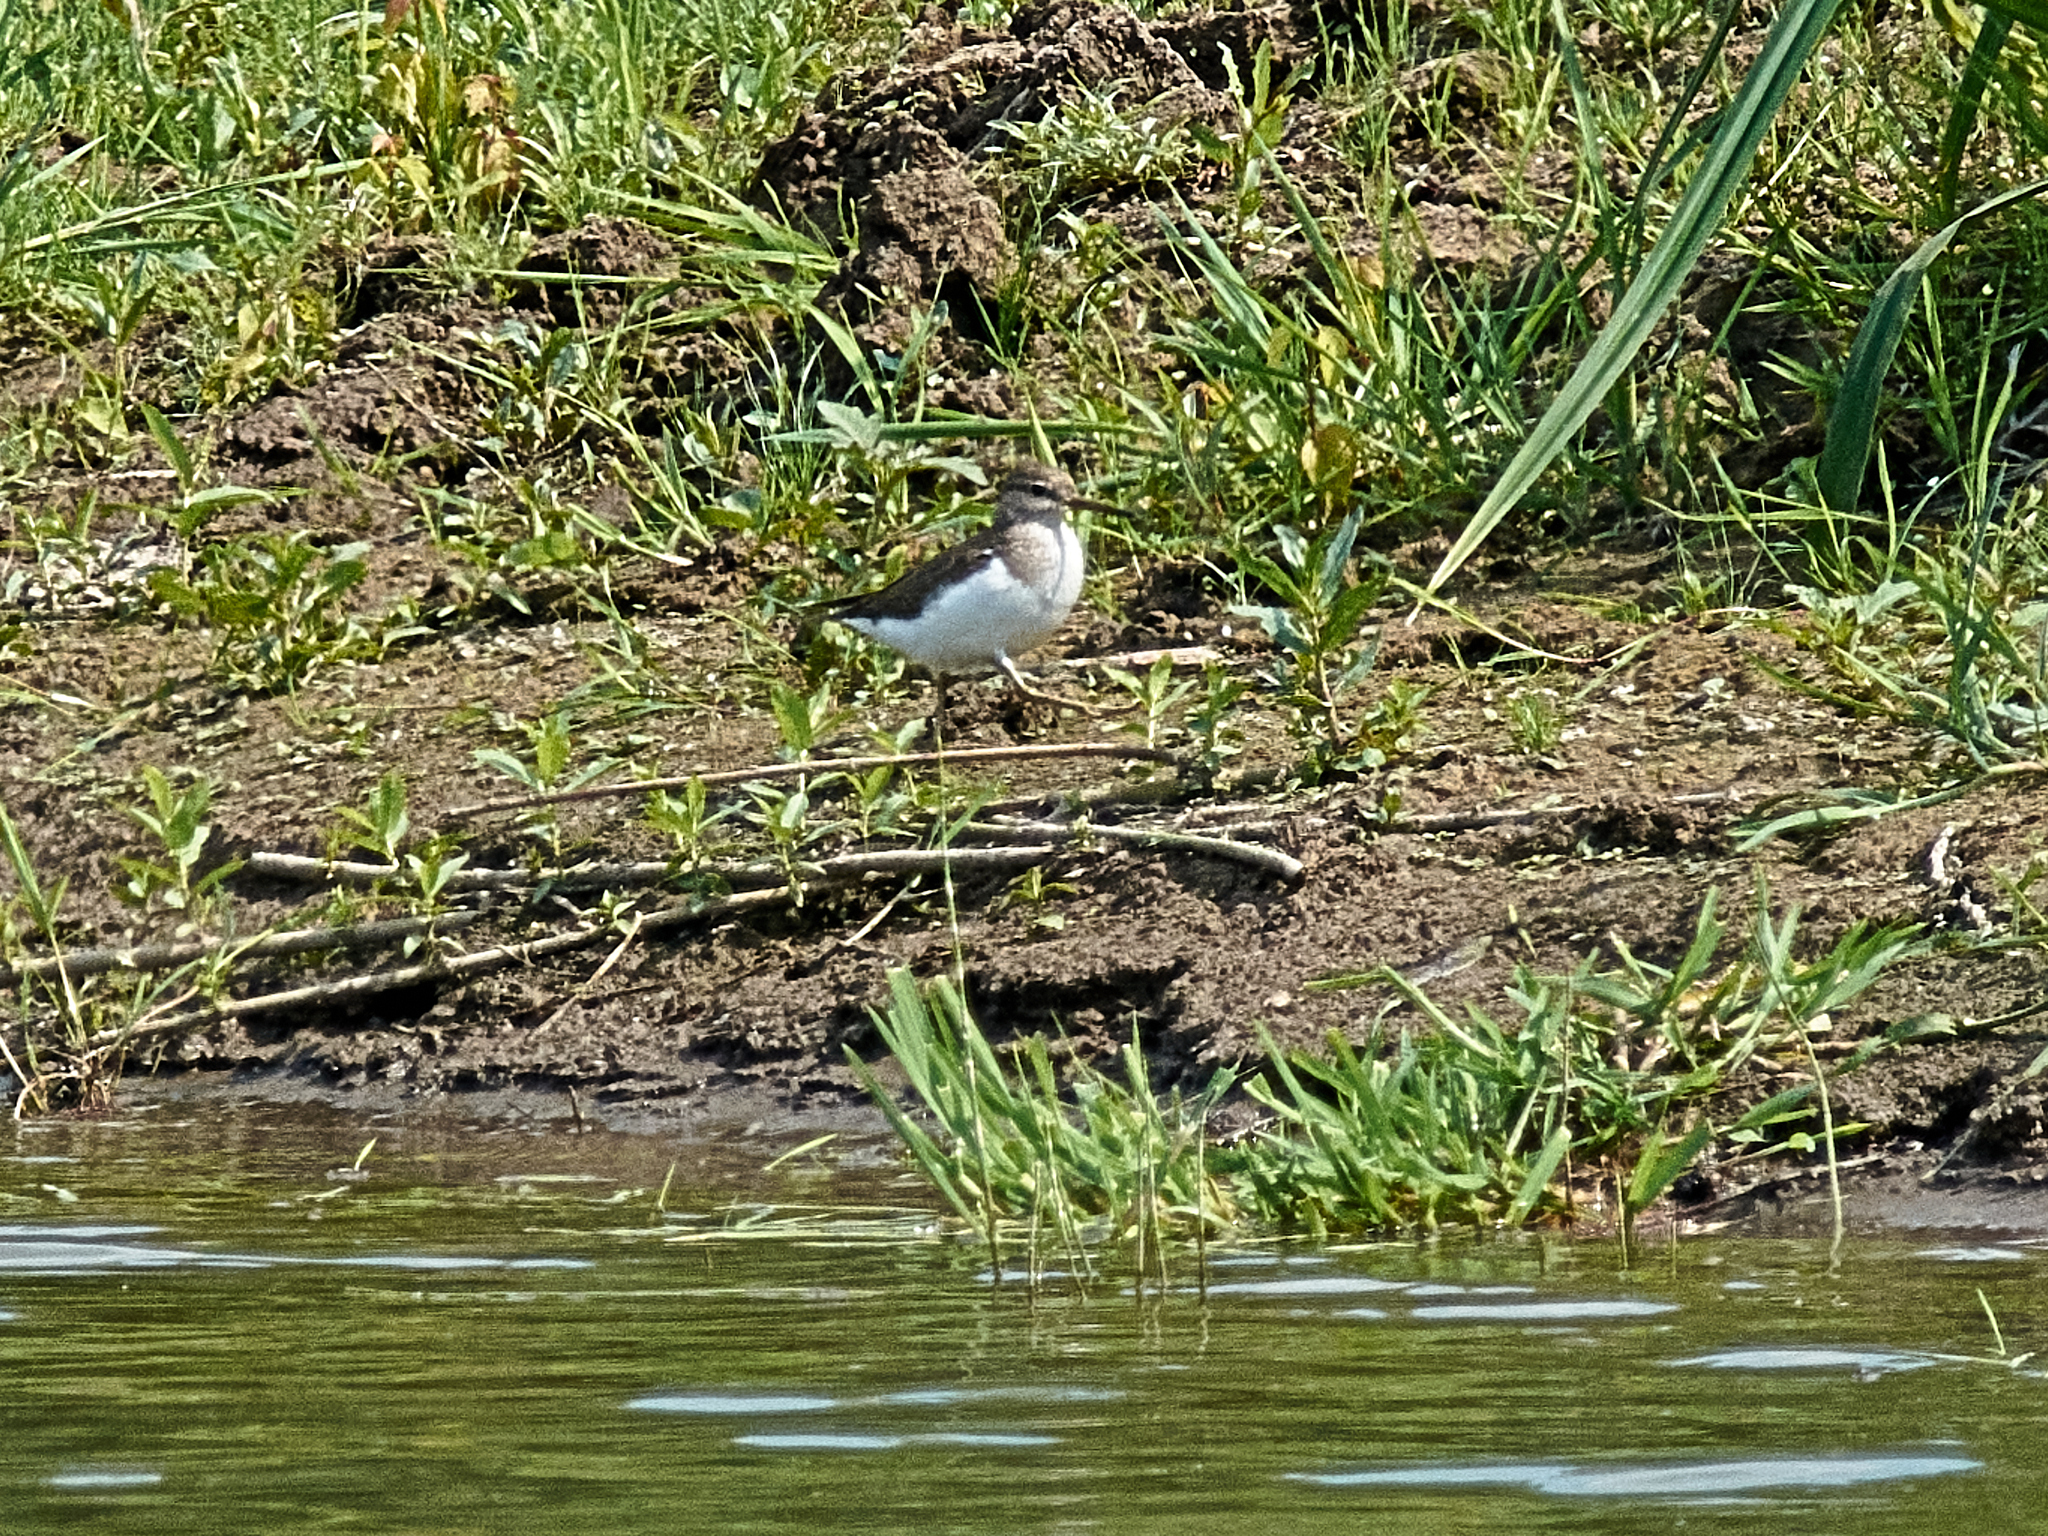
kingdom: Animalia
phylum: Chordata
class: Aves
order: Charadriiformes
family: Scolopacidae
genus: Actitis
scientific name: Actitis hypoleucos
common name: Common sandpiper
